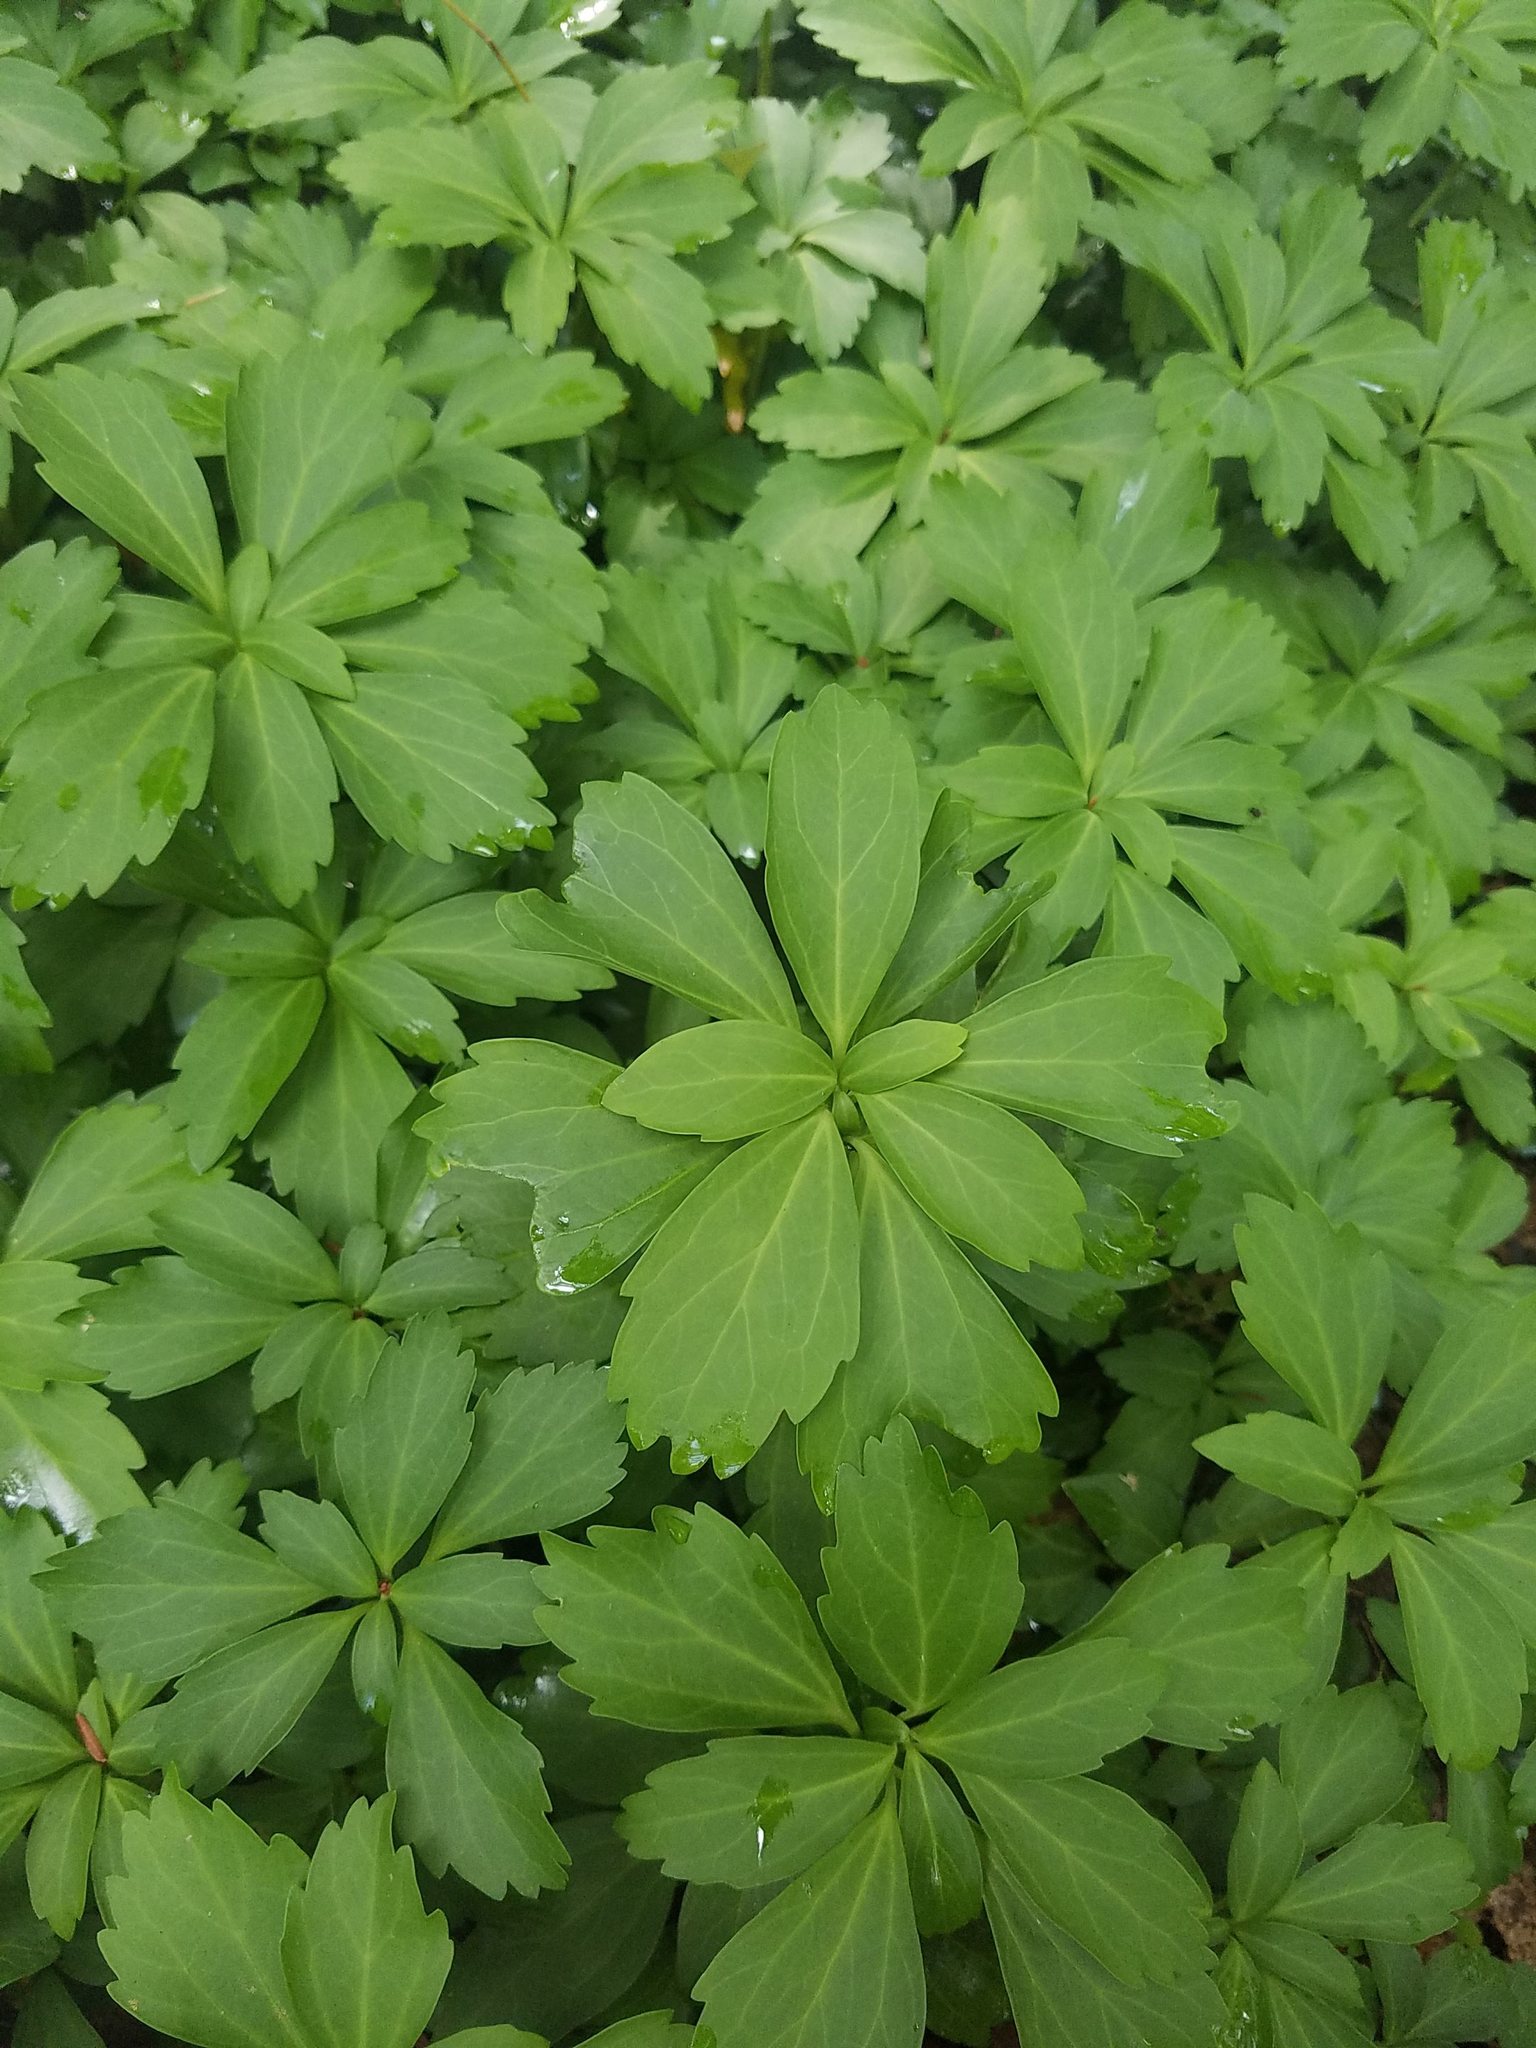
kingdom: Plantae
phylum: Tracheophyta
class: Magnoliopsida
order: Buxales
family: Buxaceae
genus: Pachysandra
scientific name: Pachysandra terminalis
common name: Japanese pachysandra
